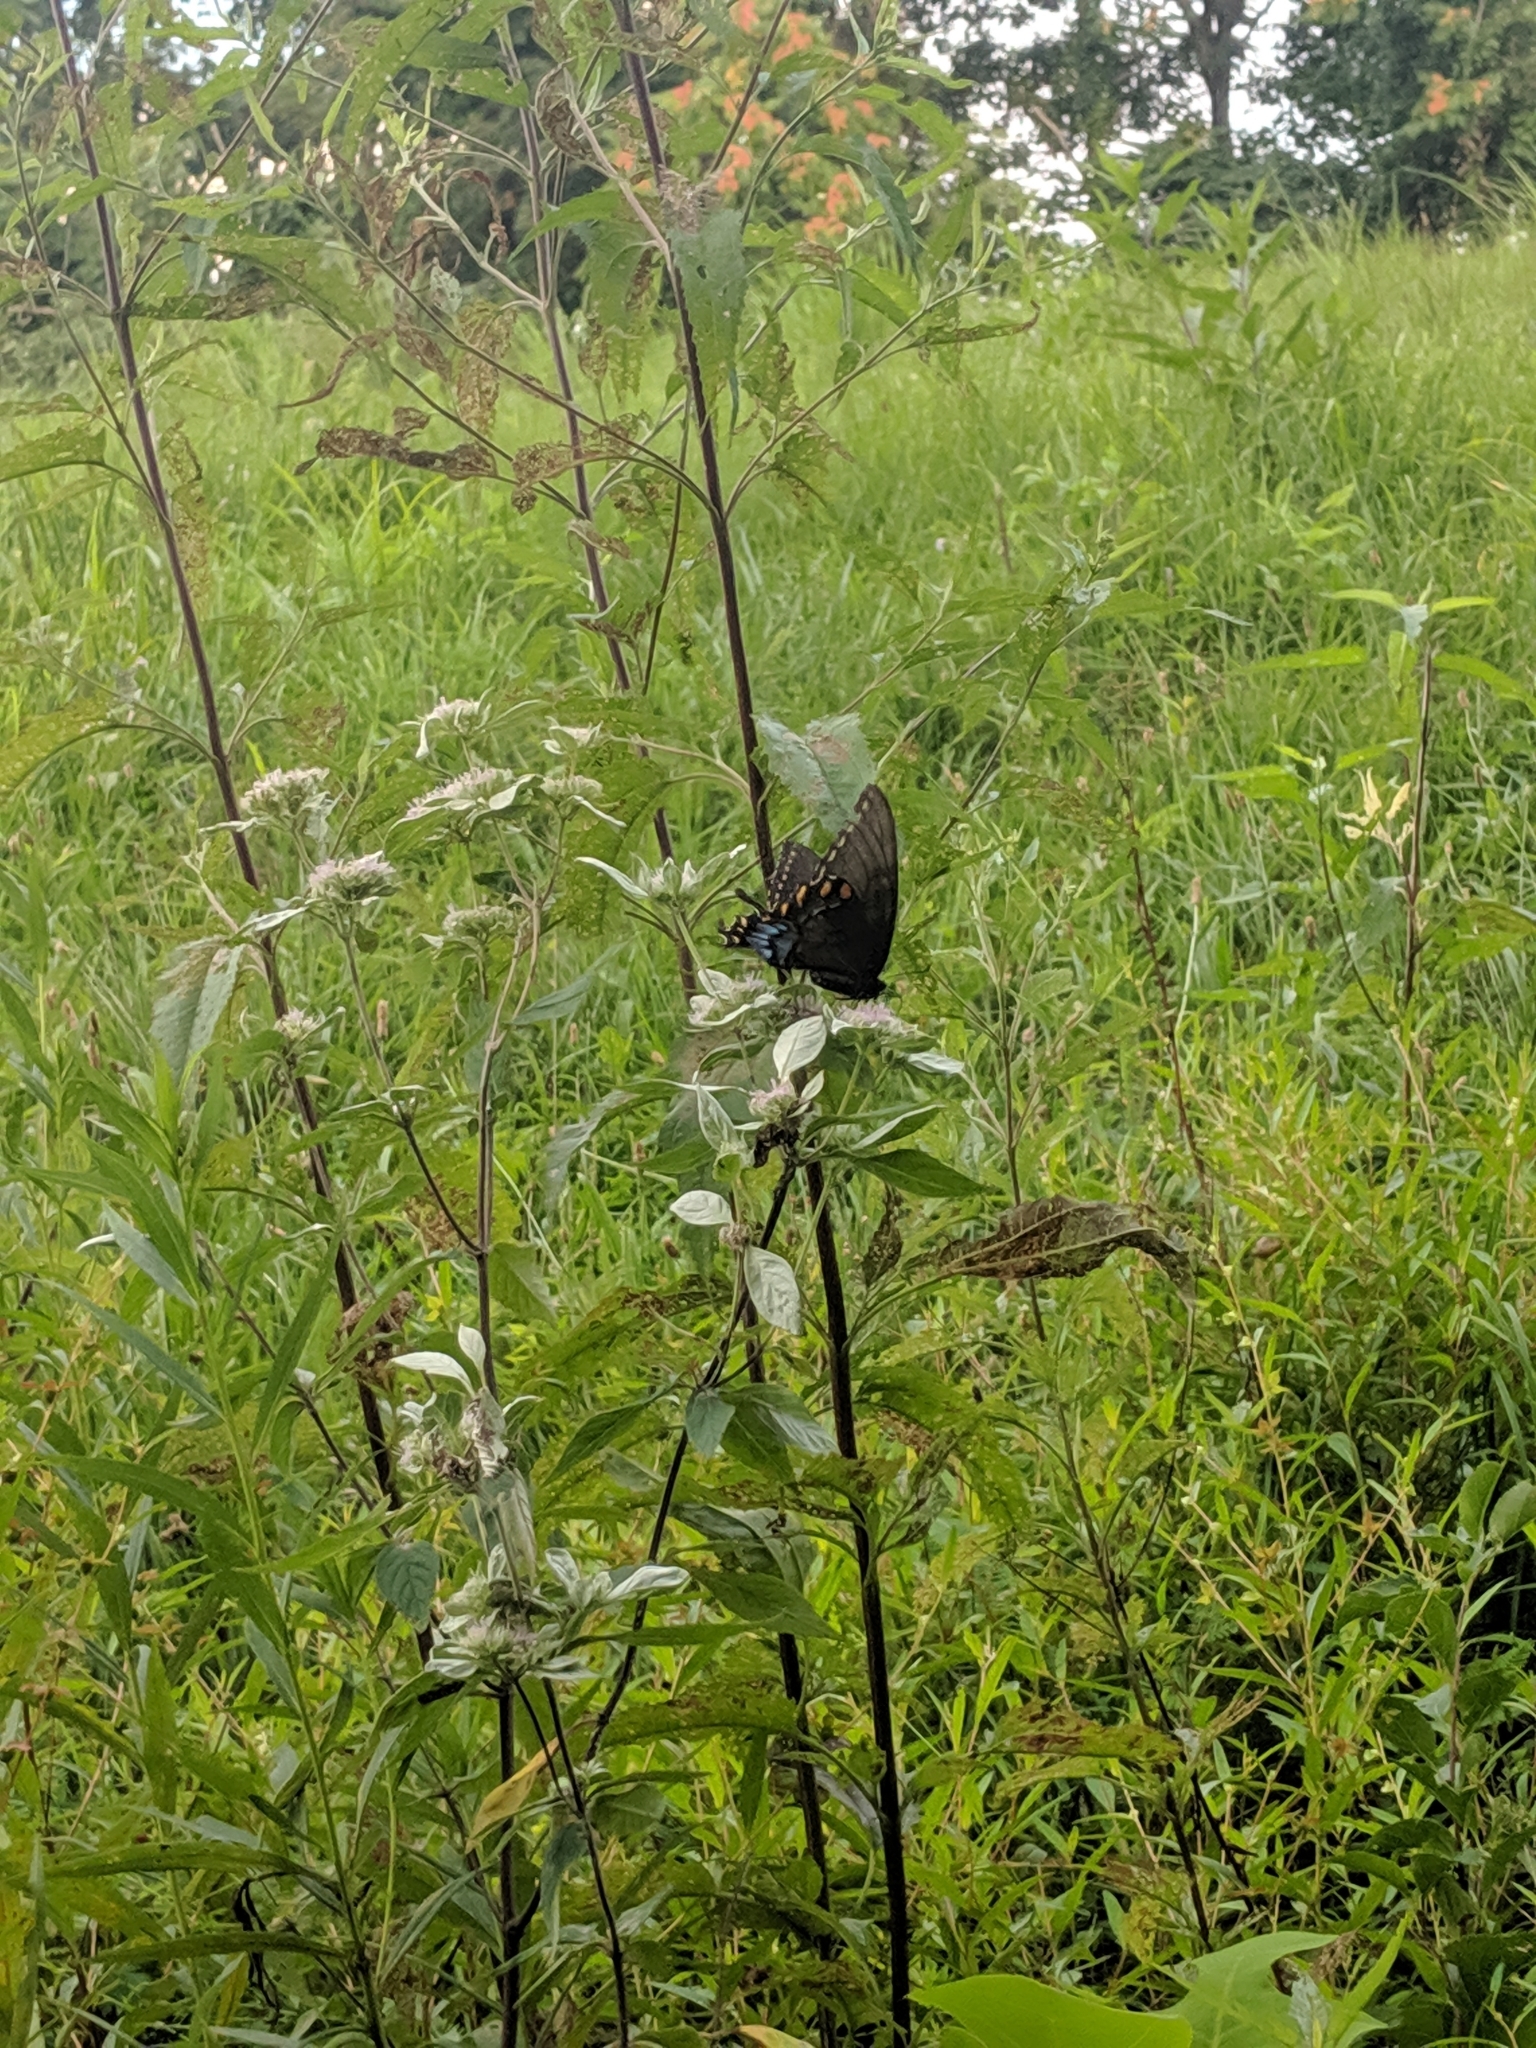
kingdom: Animalia
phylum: Arthropoda
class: Insecta
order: Lepidoptera
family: Papilionidae
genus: Papilio
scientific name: Papilio glaucus
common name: Tiger swallowtail
